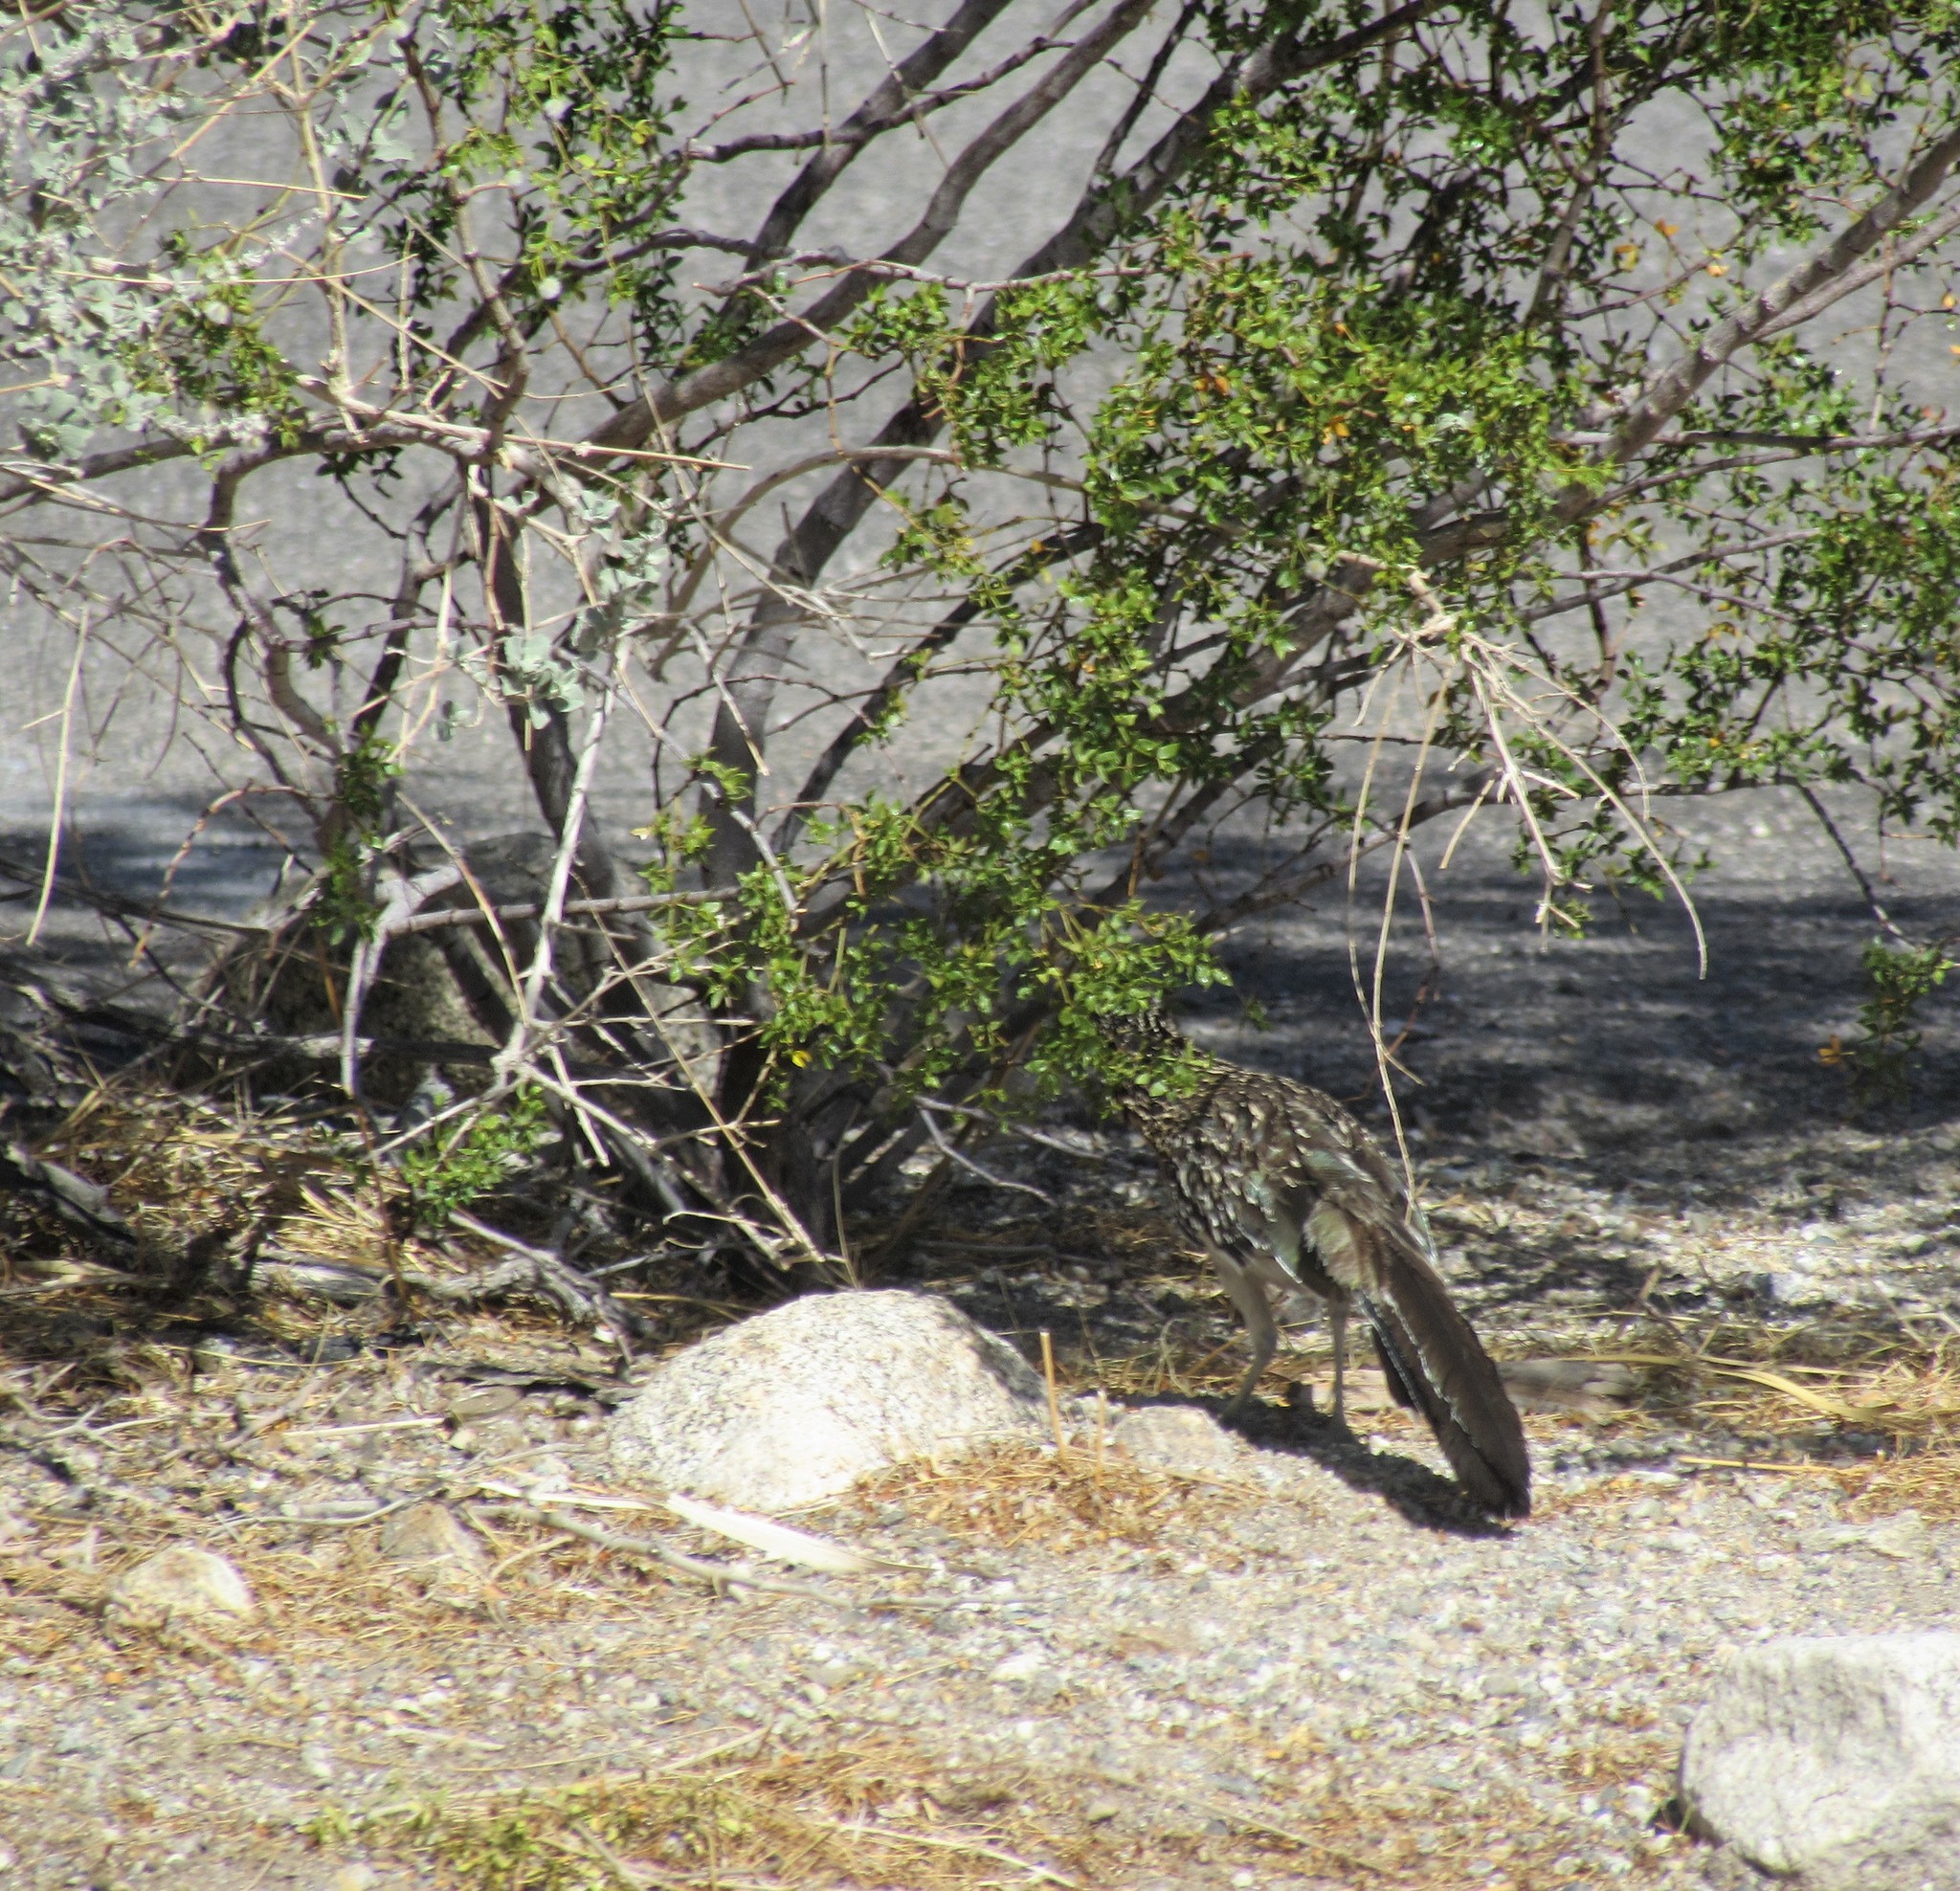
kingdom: Animalia
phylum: Chordata
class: Aves
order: Cuculiformes
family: Cuculidae
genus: Geococcyx
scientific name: Geococcyx californianus
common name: Greater roadrunner
